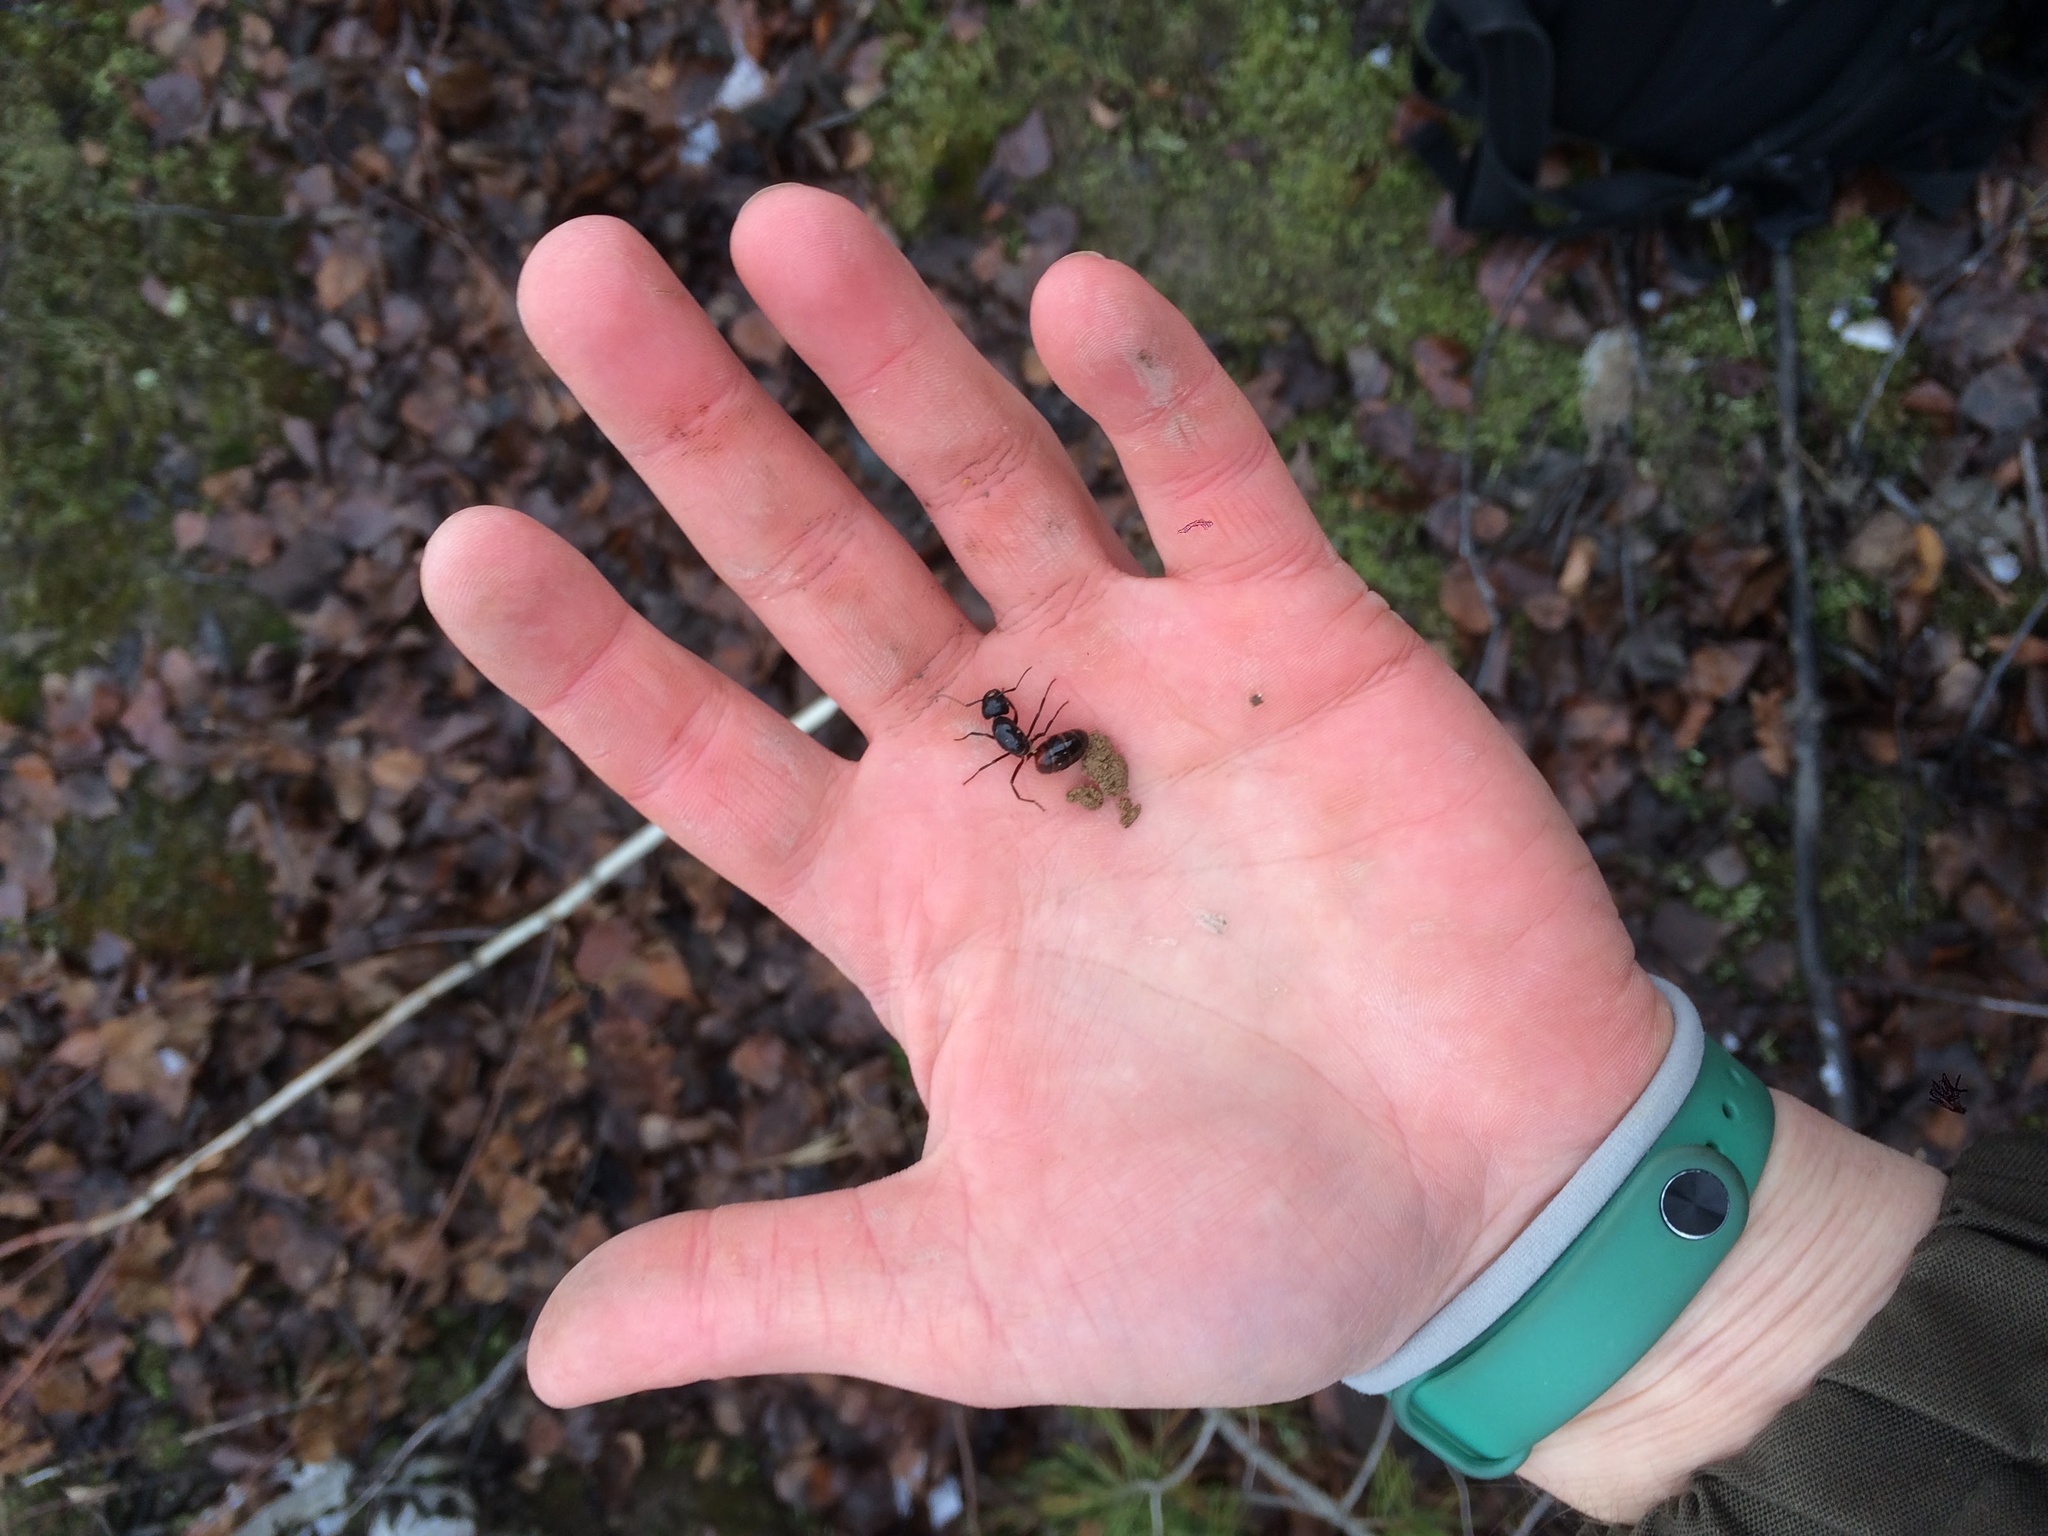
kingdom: Animalia
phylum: Arthropoda
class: Insecta
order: Hymenoptera
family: Formicidae
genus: Camponotus
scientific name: Camponotus ligniperdus
